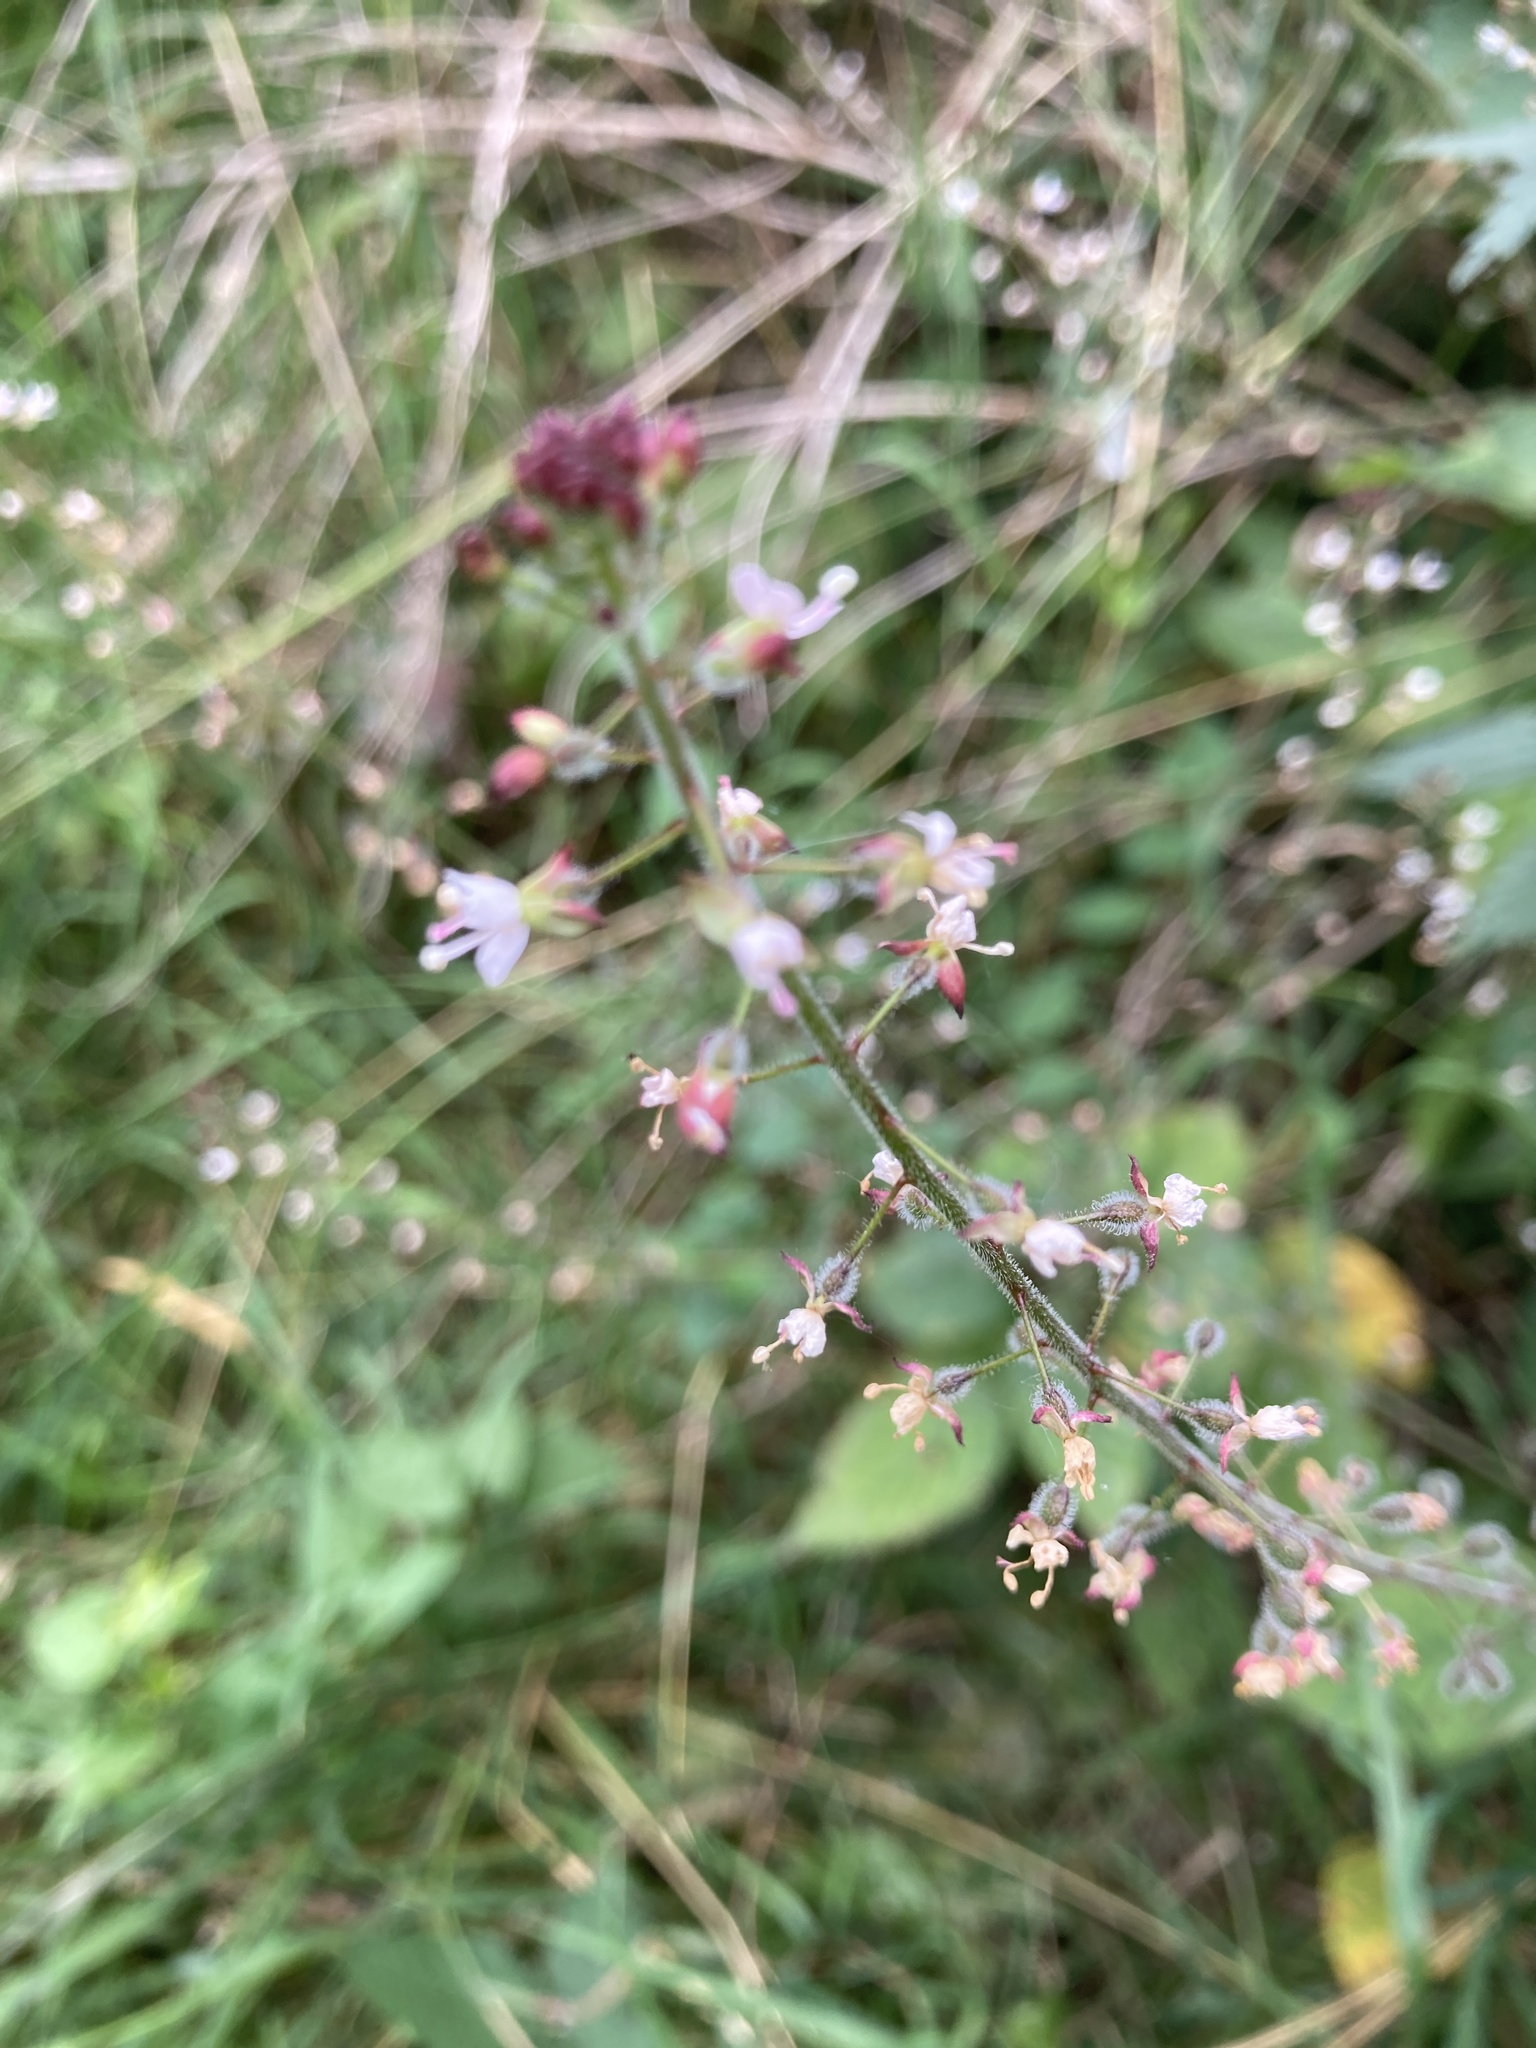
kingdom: Plantae
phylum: Tracheophyta
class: Magnoliopsida
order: Myrtales
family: Onagraceae
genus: Circaea
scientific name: Circaea lutetiana
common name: Enchanter's-nightshade
